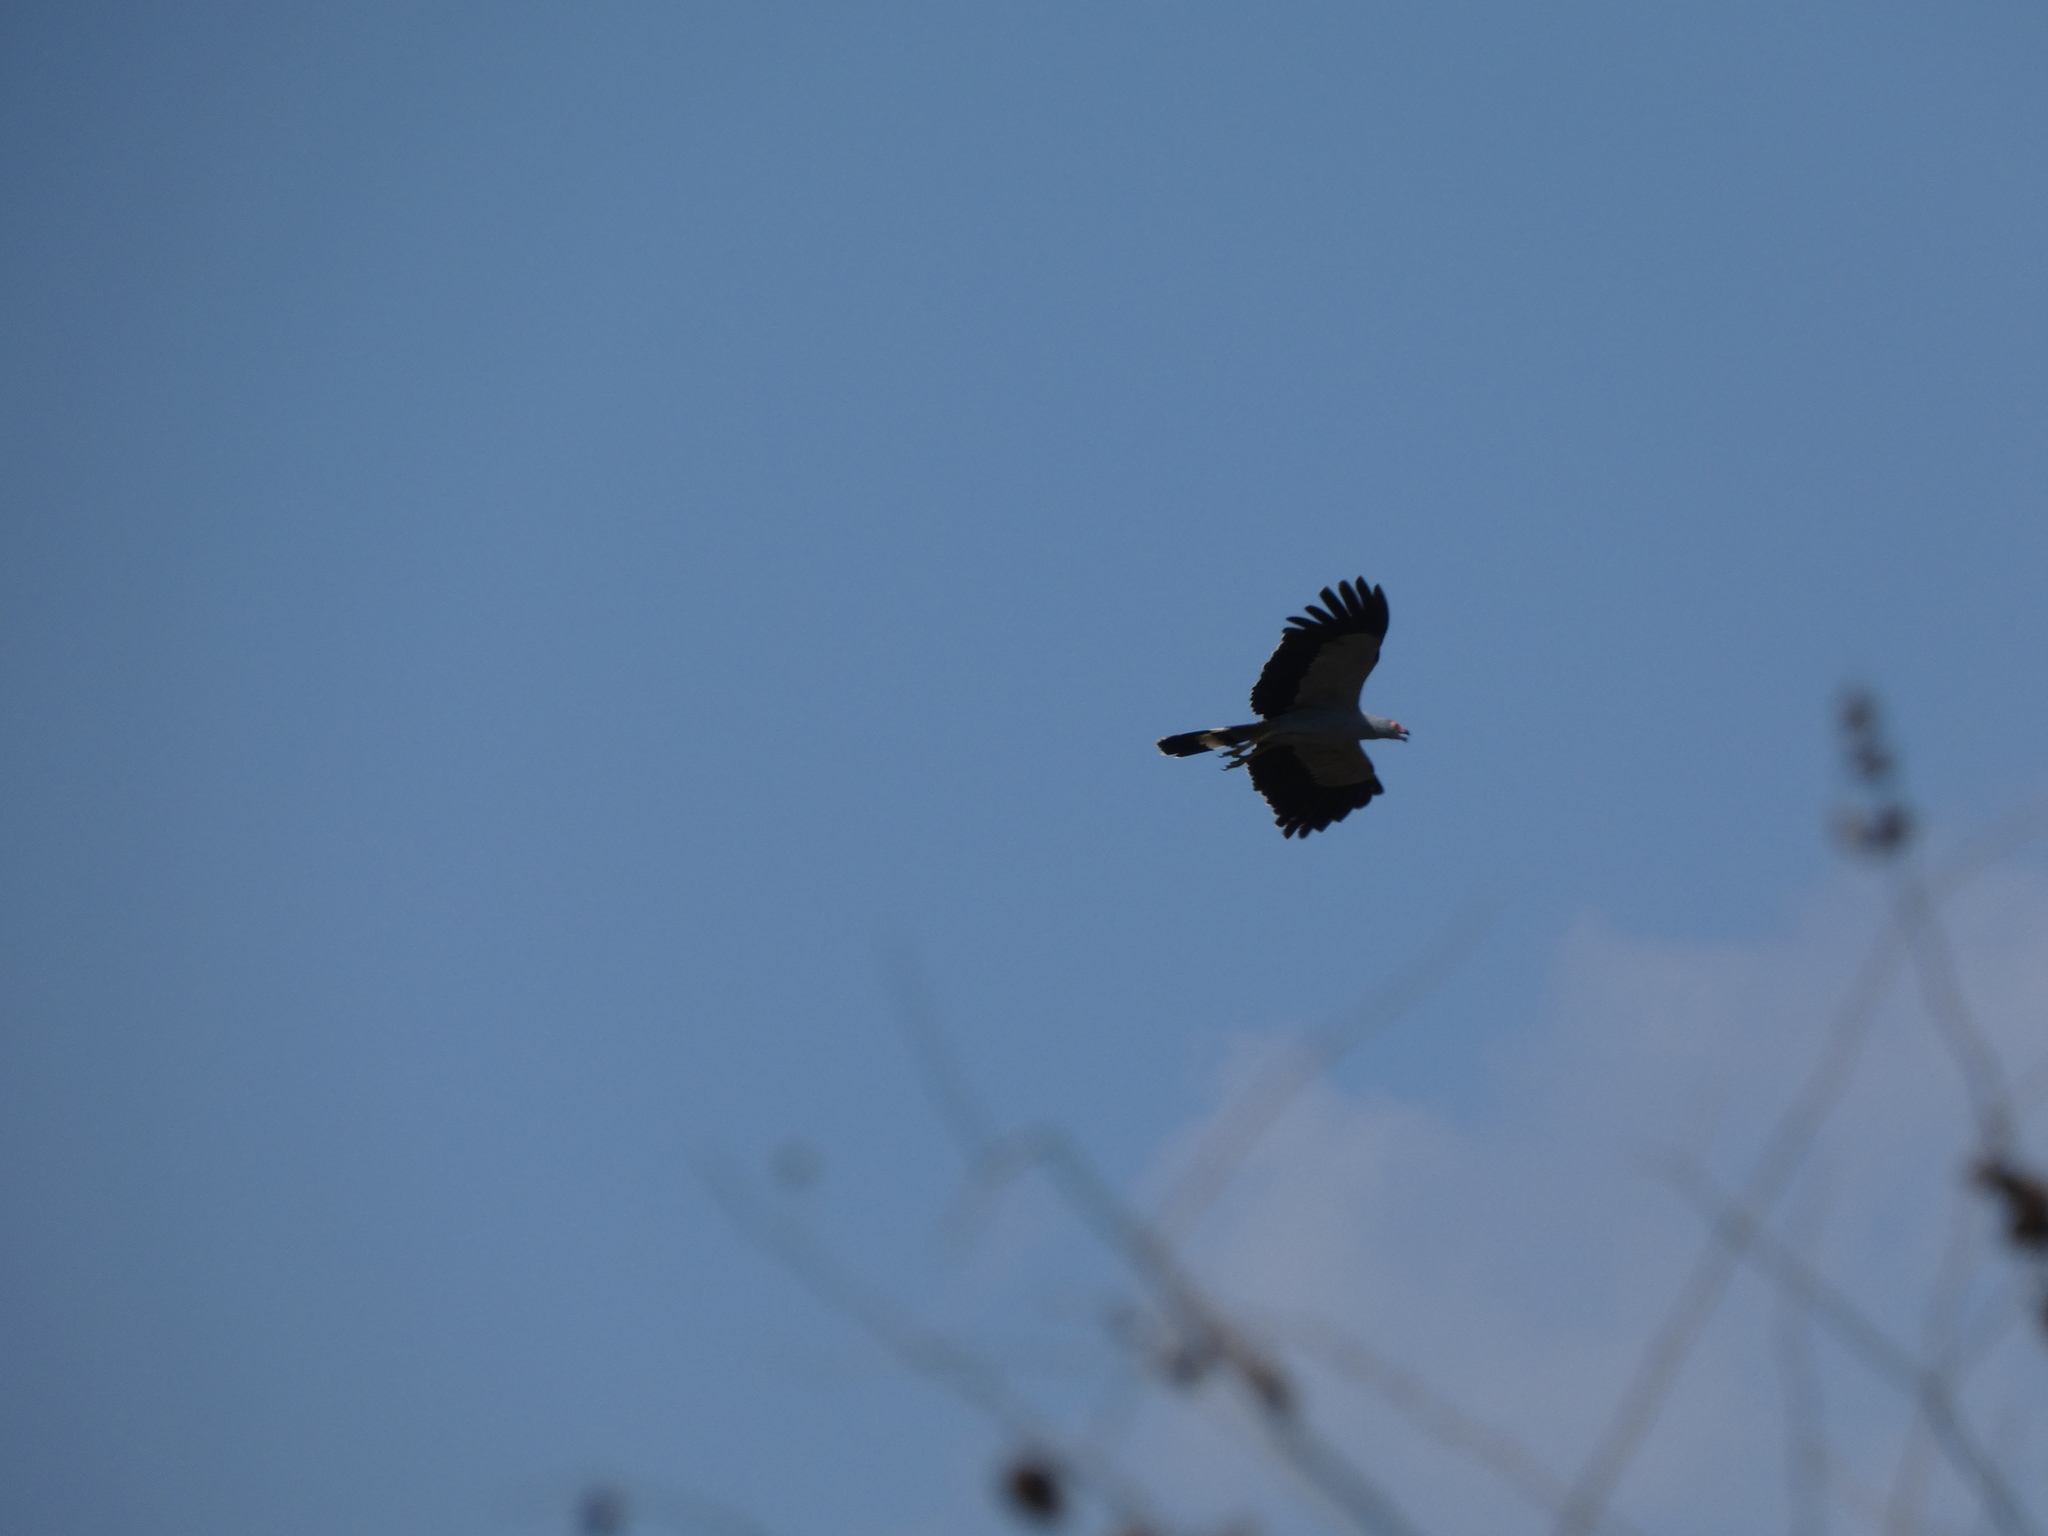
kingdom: Animalia
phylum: Chordata
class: Aves
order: Accipitriformes
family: Accipitridae
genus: Polyboroides
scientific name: Polyboroides radiatus
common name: Madagascar harrier-hawk
